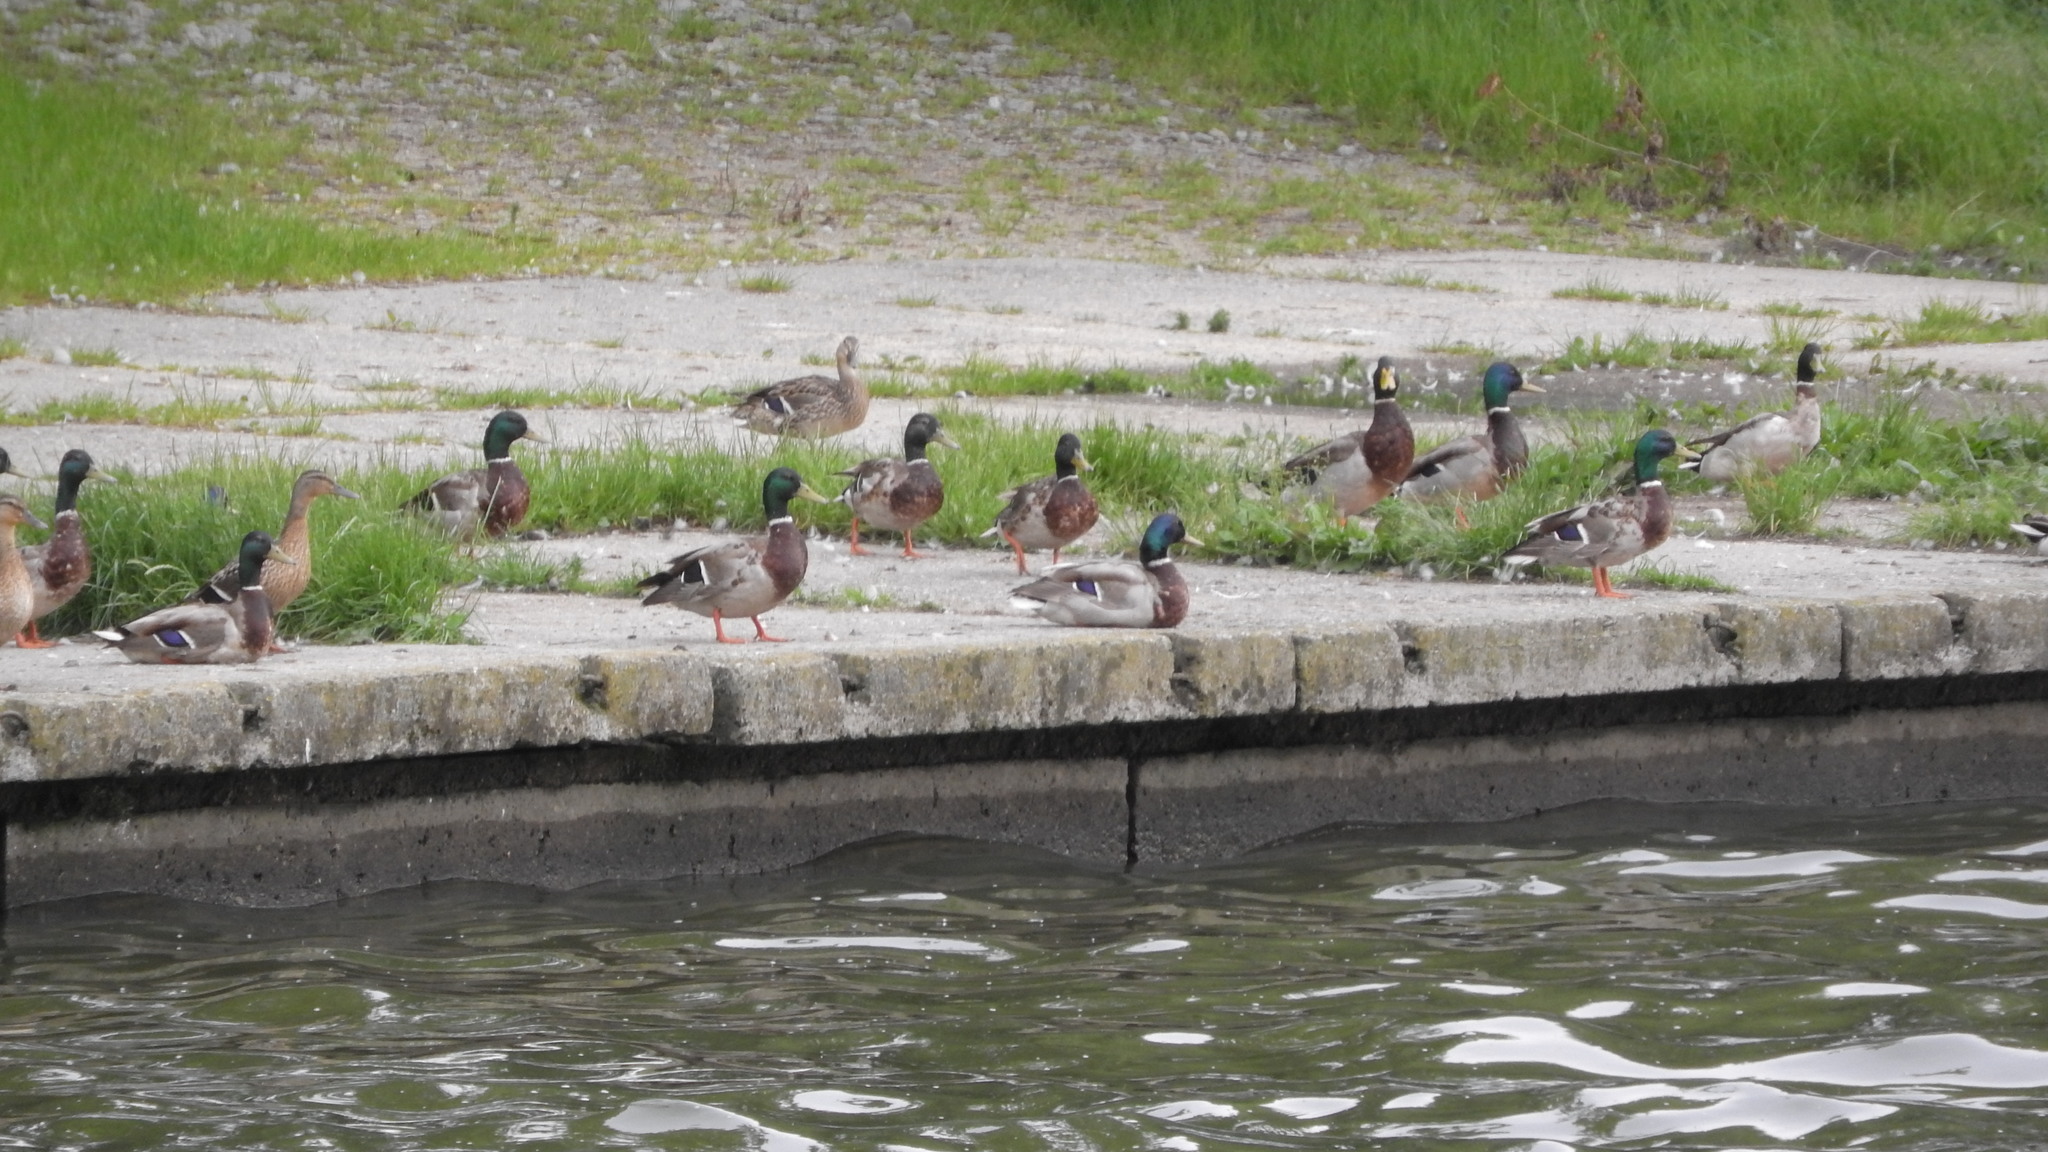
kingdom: Animalia
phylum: Chordata
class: Aves
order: Anseriformes
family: Anatidae
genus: Anas
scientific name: Anas platyrhynchos
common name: Mallard
